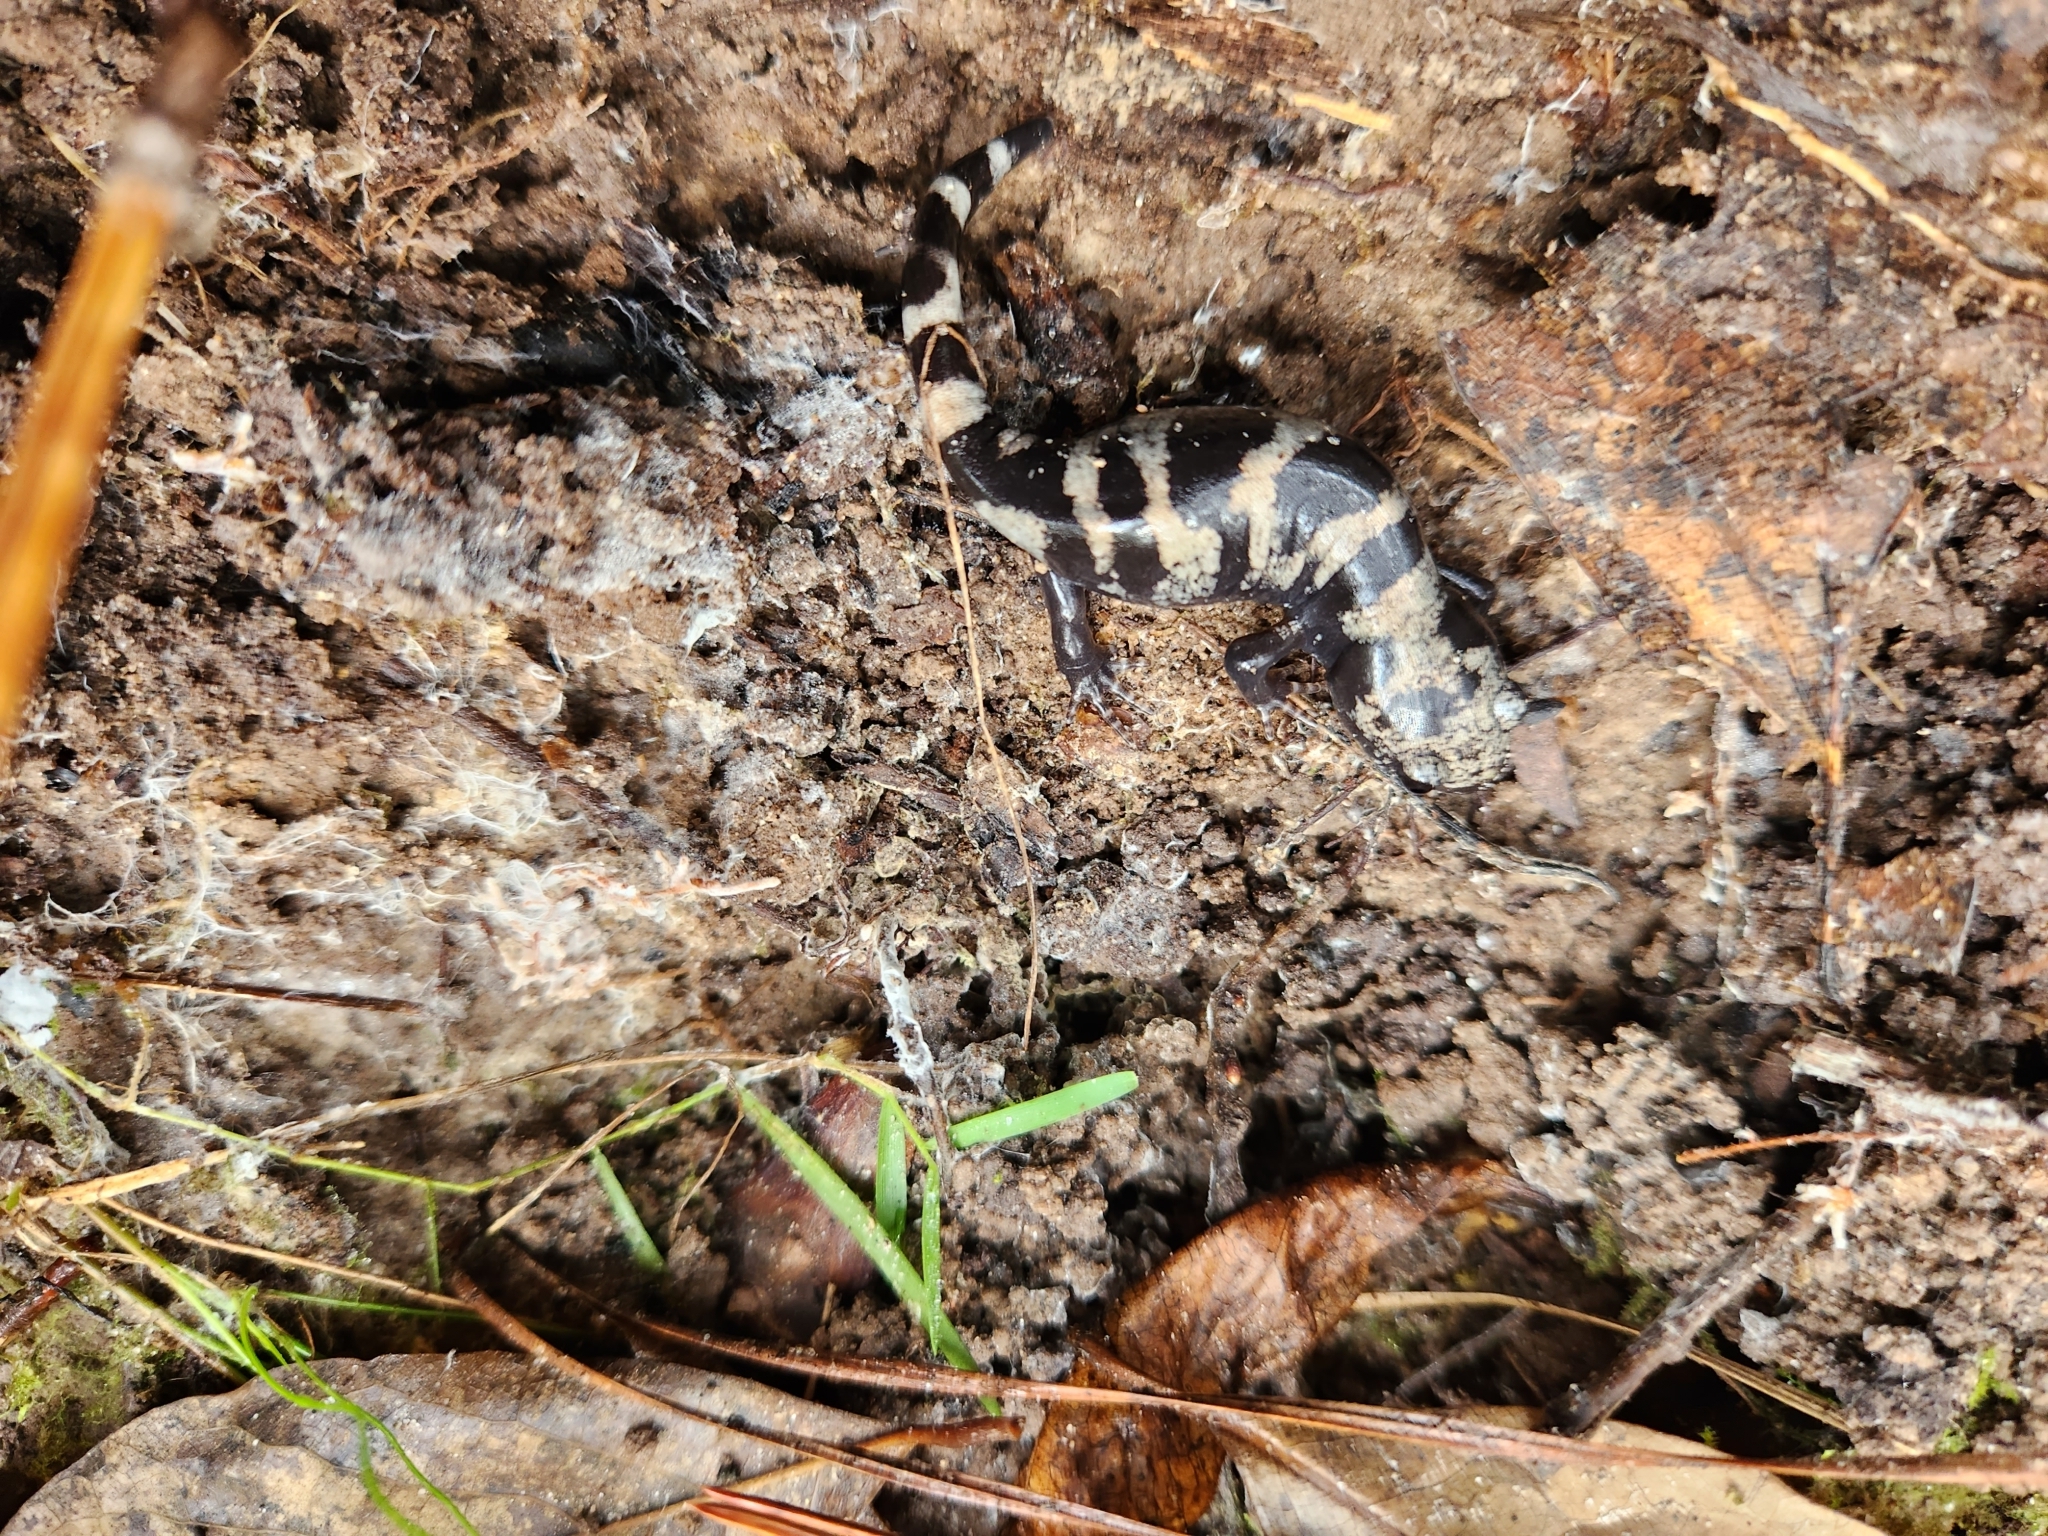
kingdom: Animalia
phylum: Chordata
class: Amphibia
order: Caudata
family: Ambystomatidae
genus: Ambystoma
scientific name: Ambystoma opacum
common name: Marbled salamander
